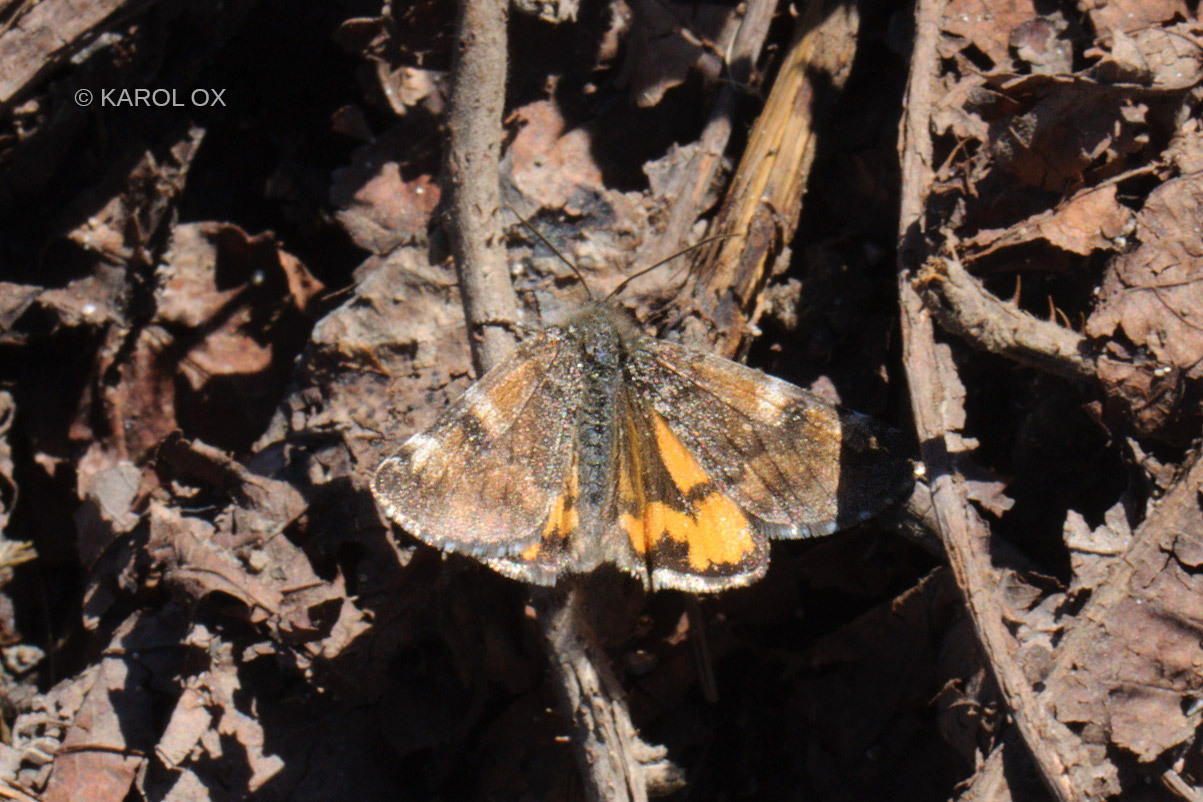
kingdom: Animalia
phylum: Arthropoda
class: Insecta
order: Lepidoptera
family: Geometridae
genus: Archiearis
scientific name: Archiearis parthenias
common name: Orange underwing
